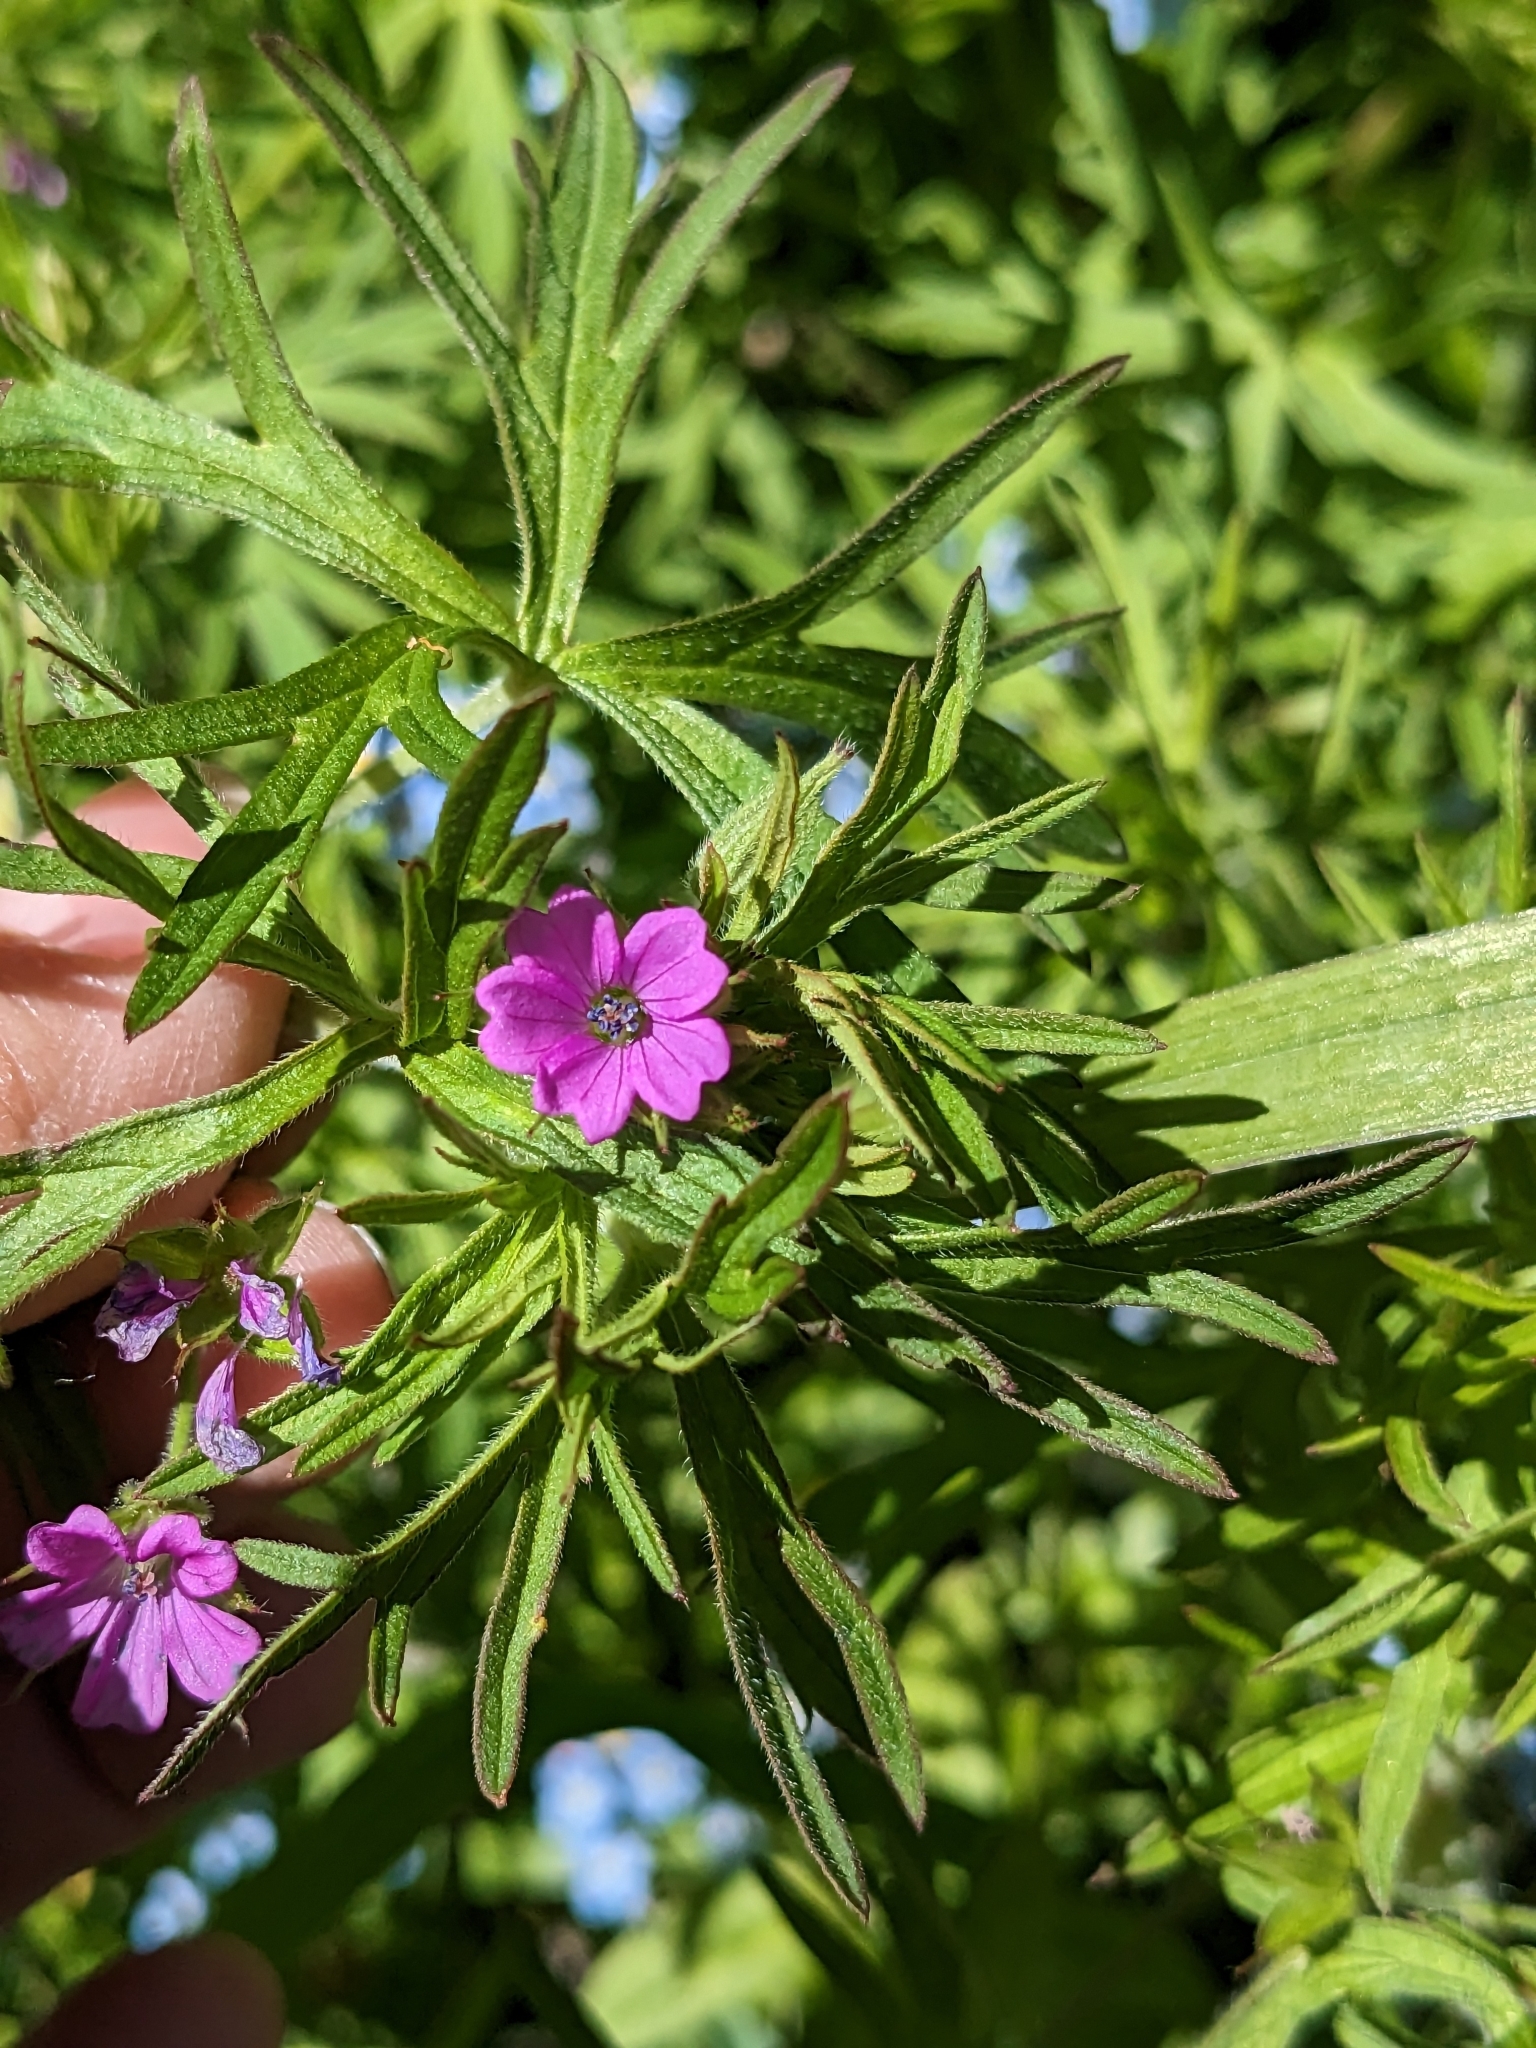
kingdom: Plantae
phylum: Tracheophyta
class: Magnoliopsida
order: Geraniales
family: Geraniaceae
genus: Geranium
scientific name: Geranium dissectum
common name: Cut-leaved crane's-bill
